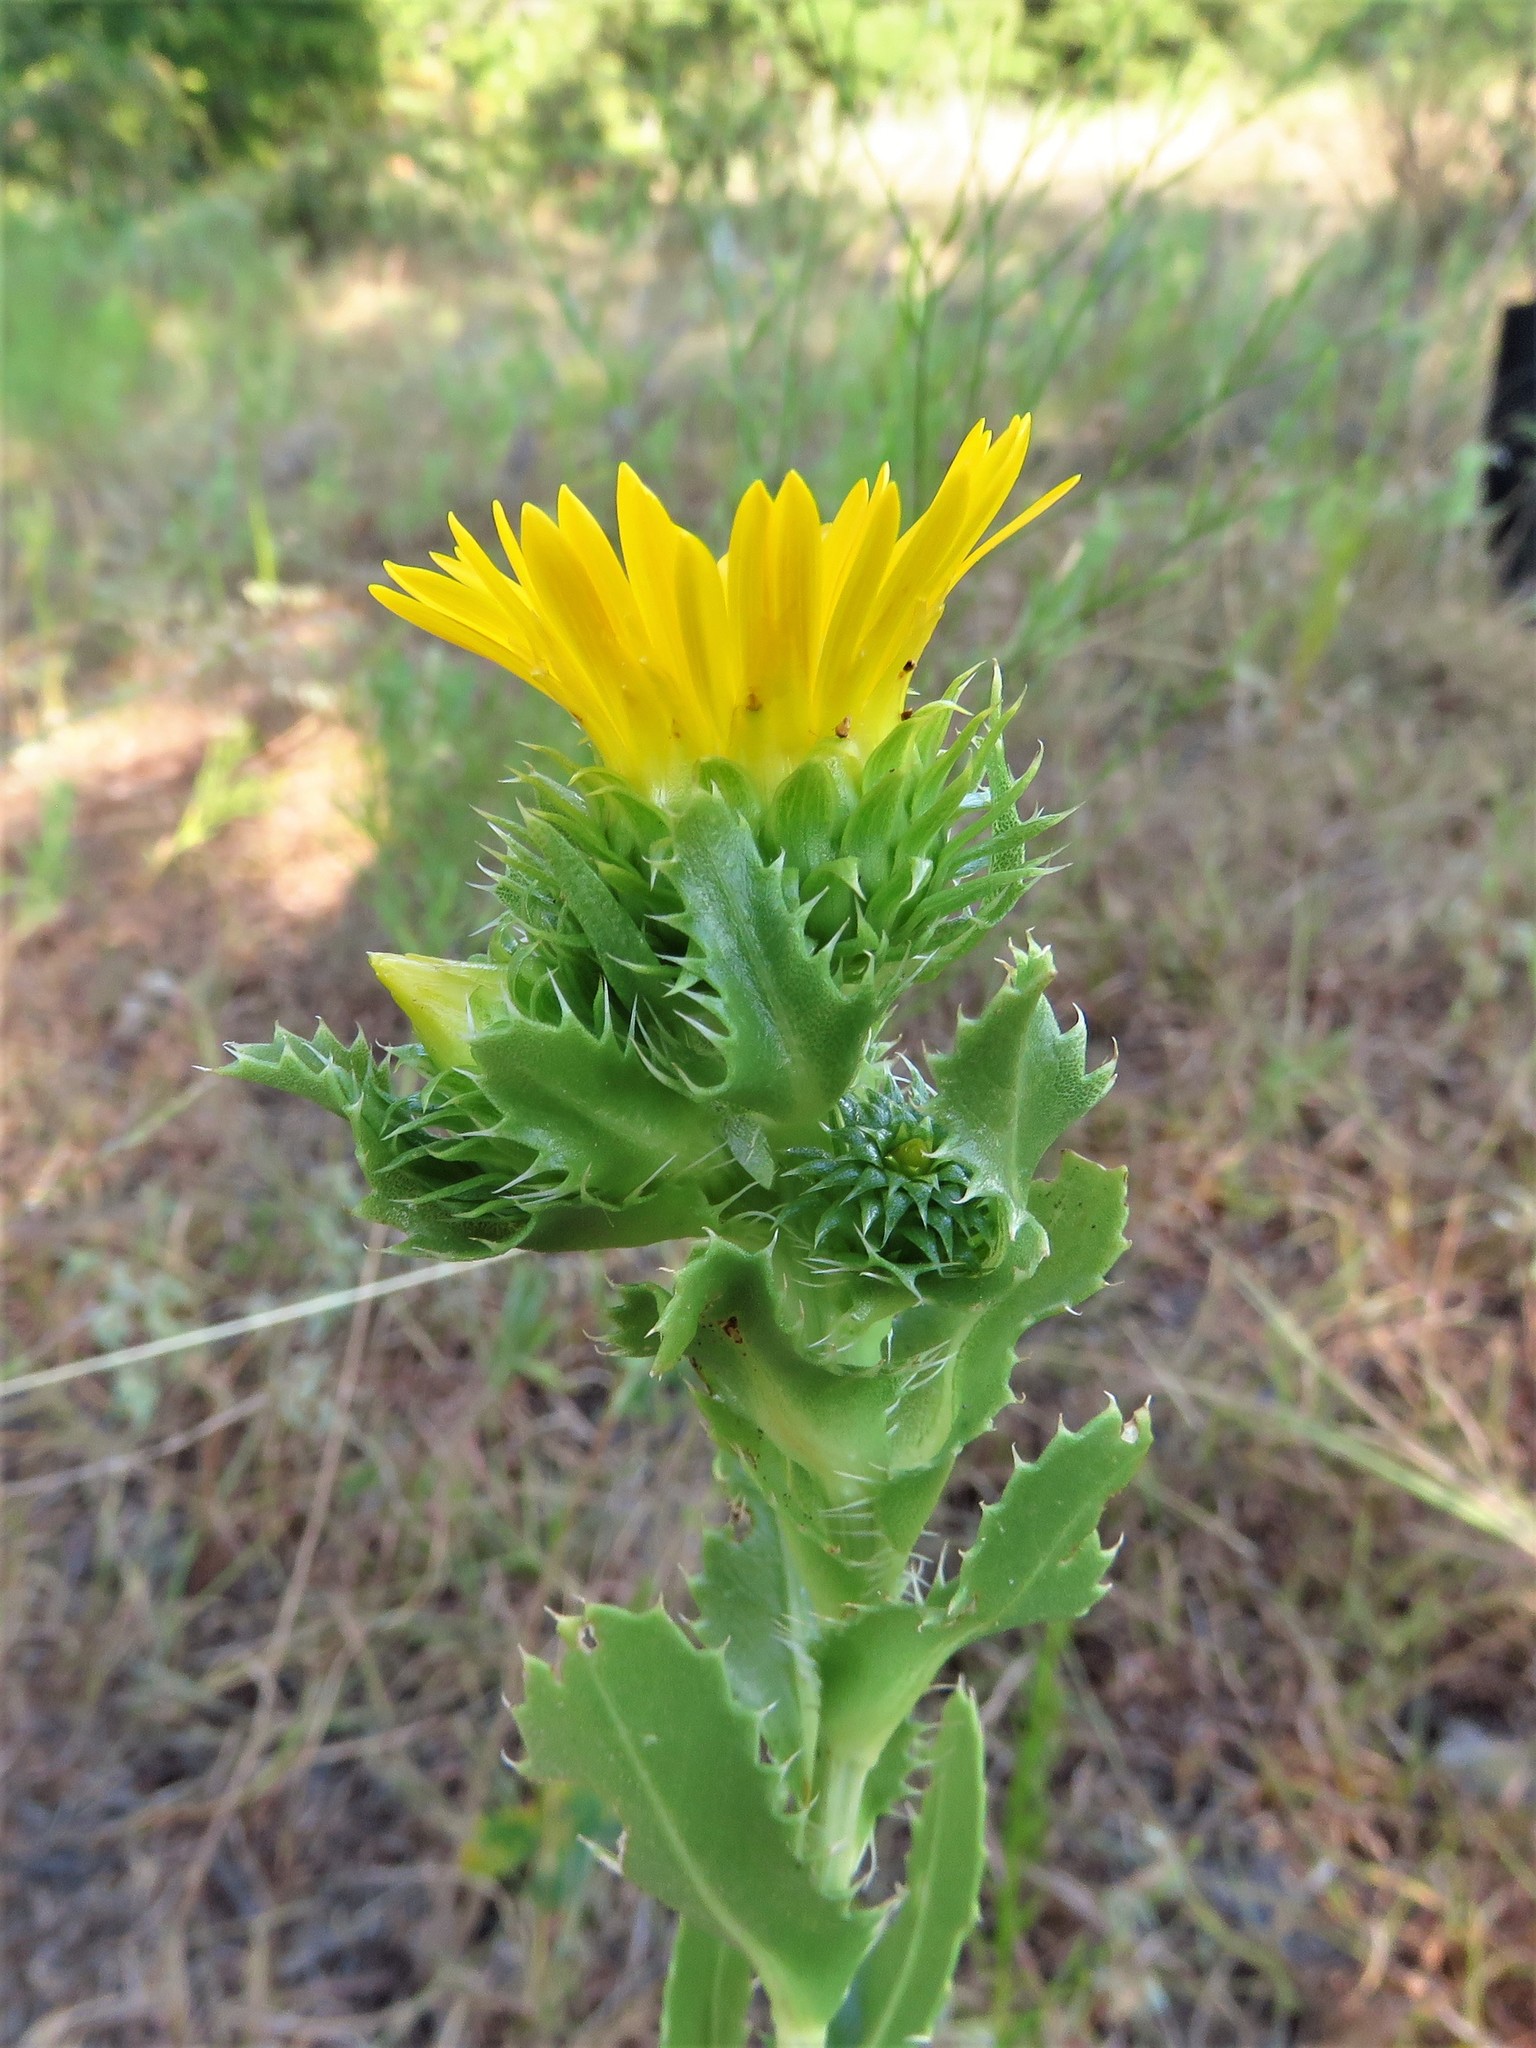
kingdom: Plantae
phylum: Tracheophyta
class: Magnoliopsida
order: Asterales
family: Asteraceae
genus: Grindelia
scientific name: Grindelia ciliata
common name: Goldenweed
